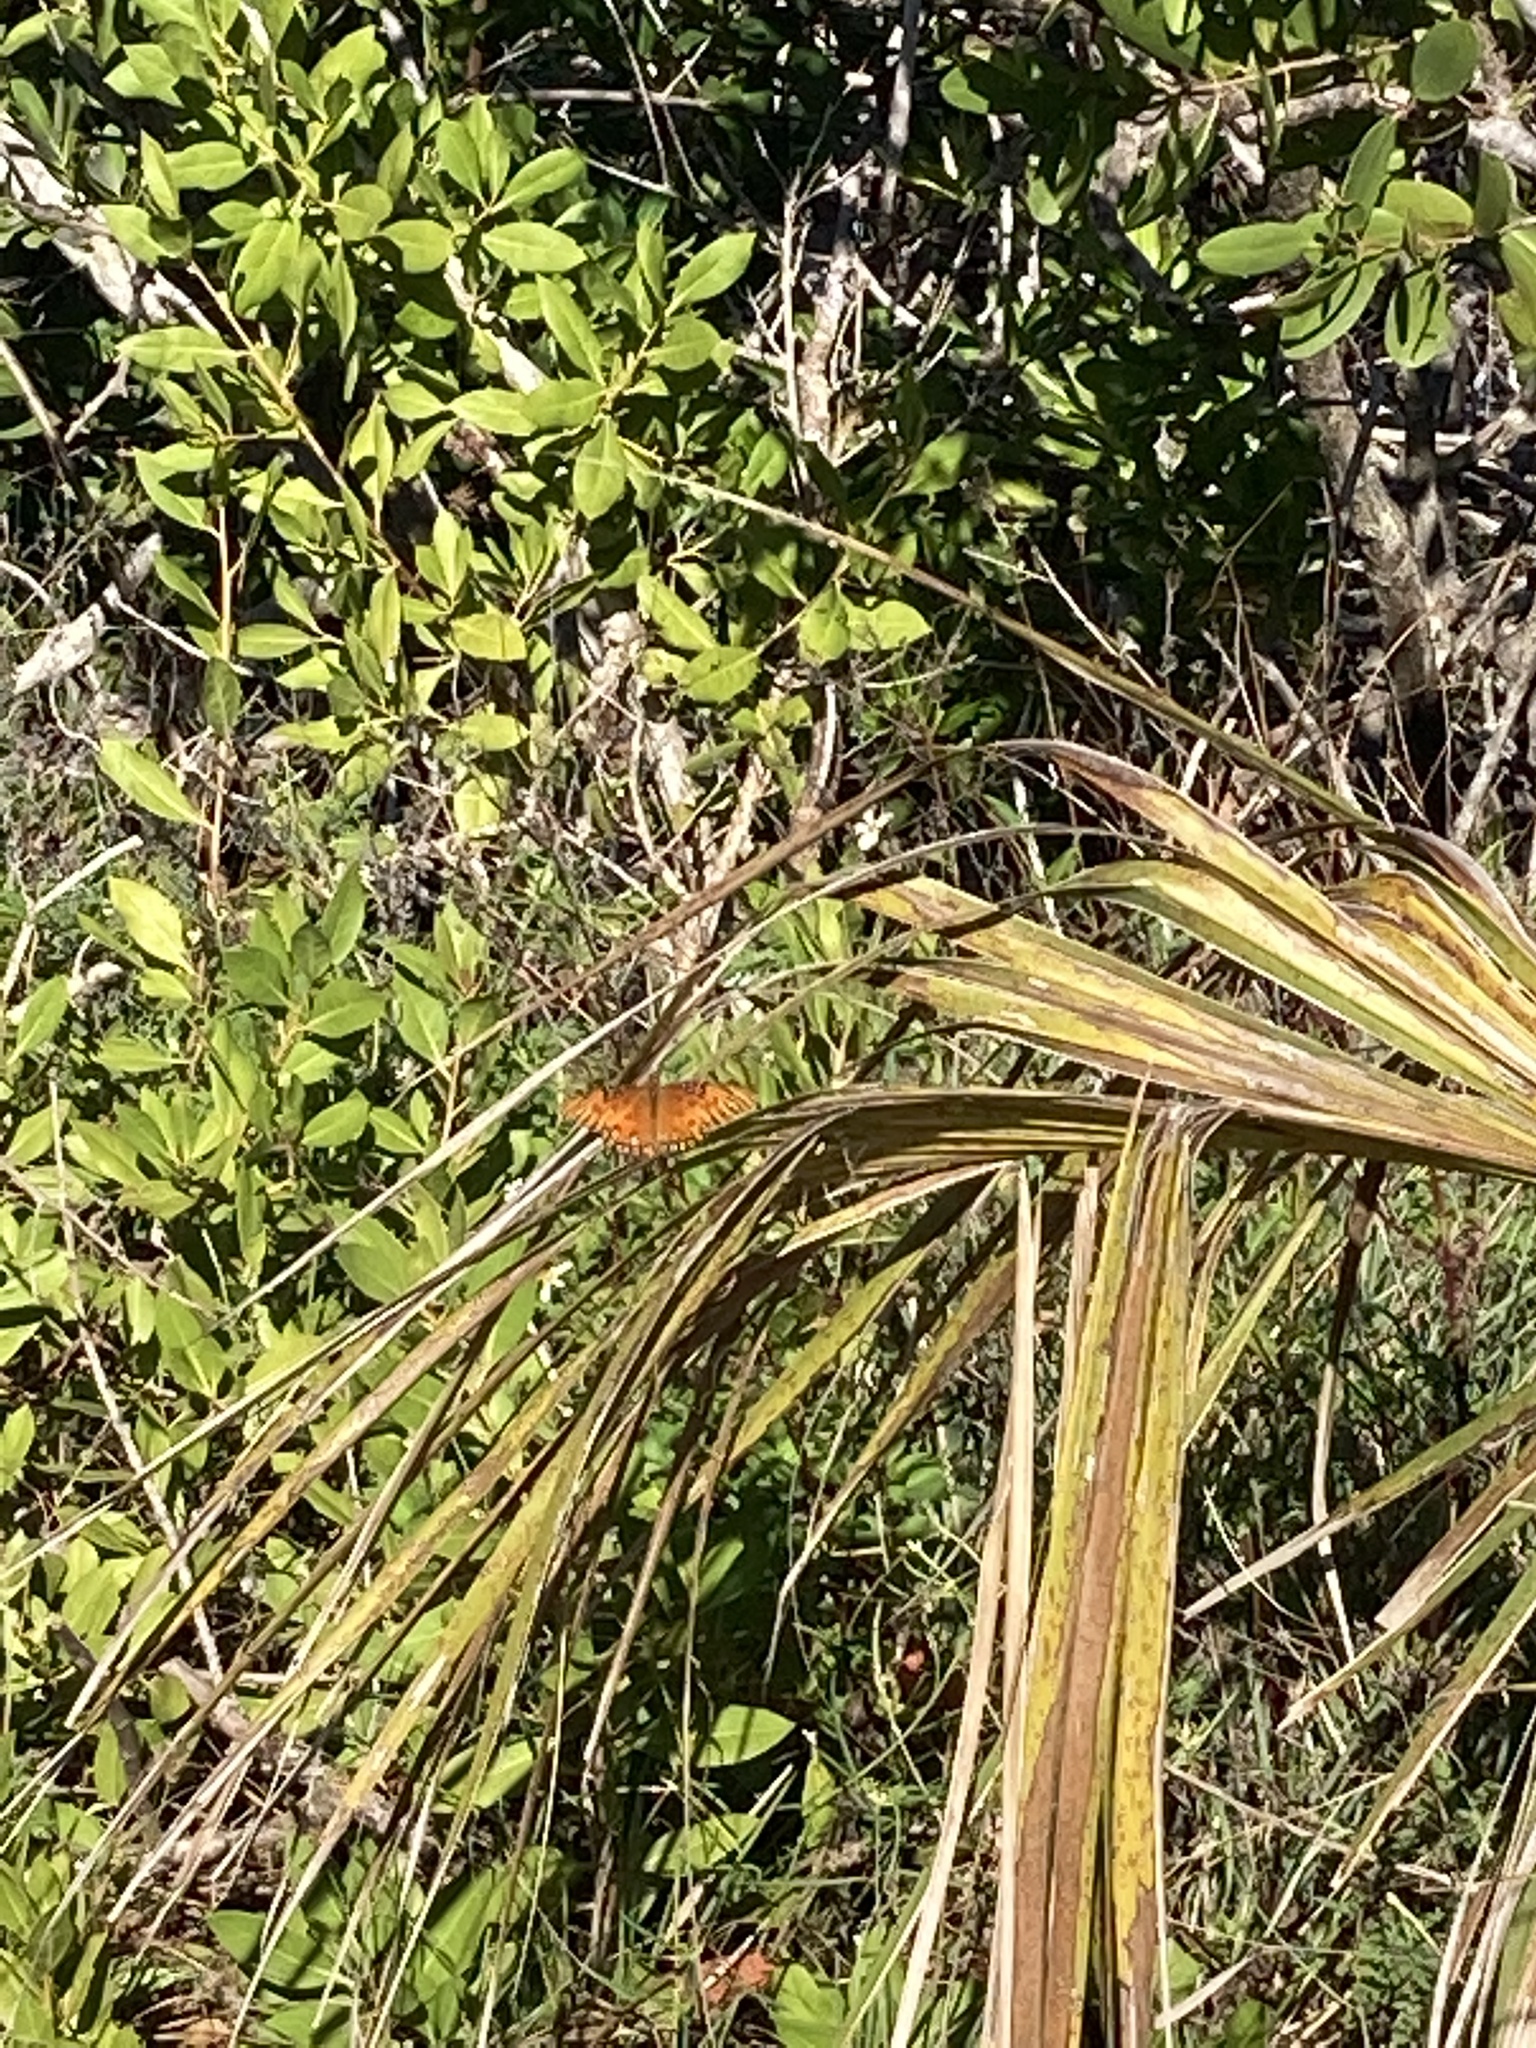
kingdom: Animalia
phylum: Arthropoda
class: Insecta
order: Lepidoptera
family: Nymphalidae
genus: Dione
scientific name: Dione vanillae
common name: Gulf fritillary
